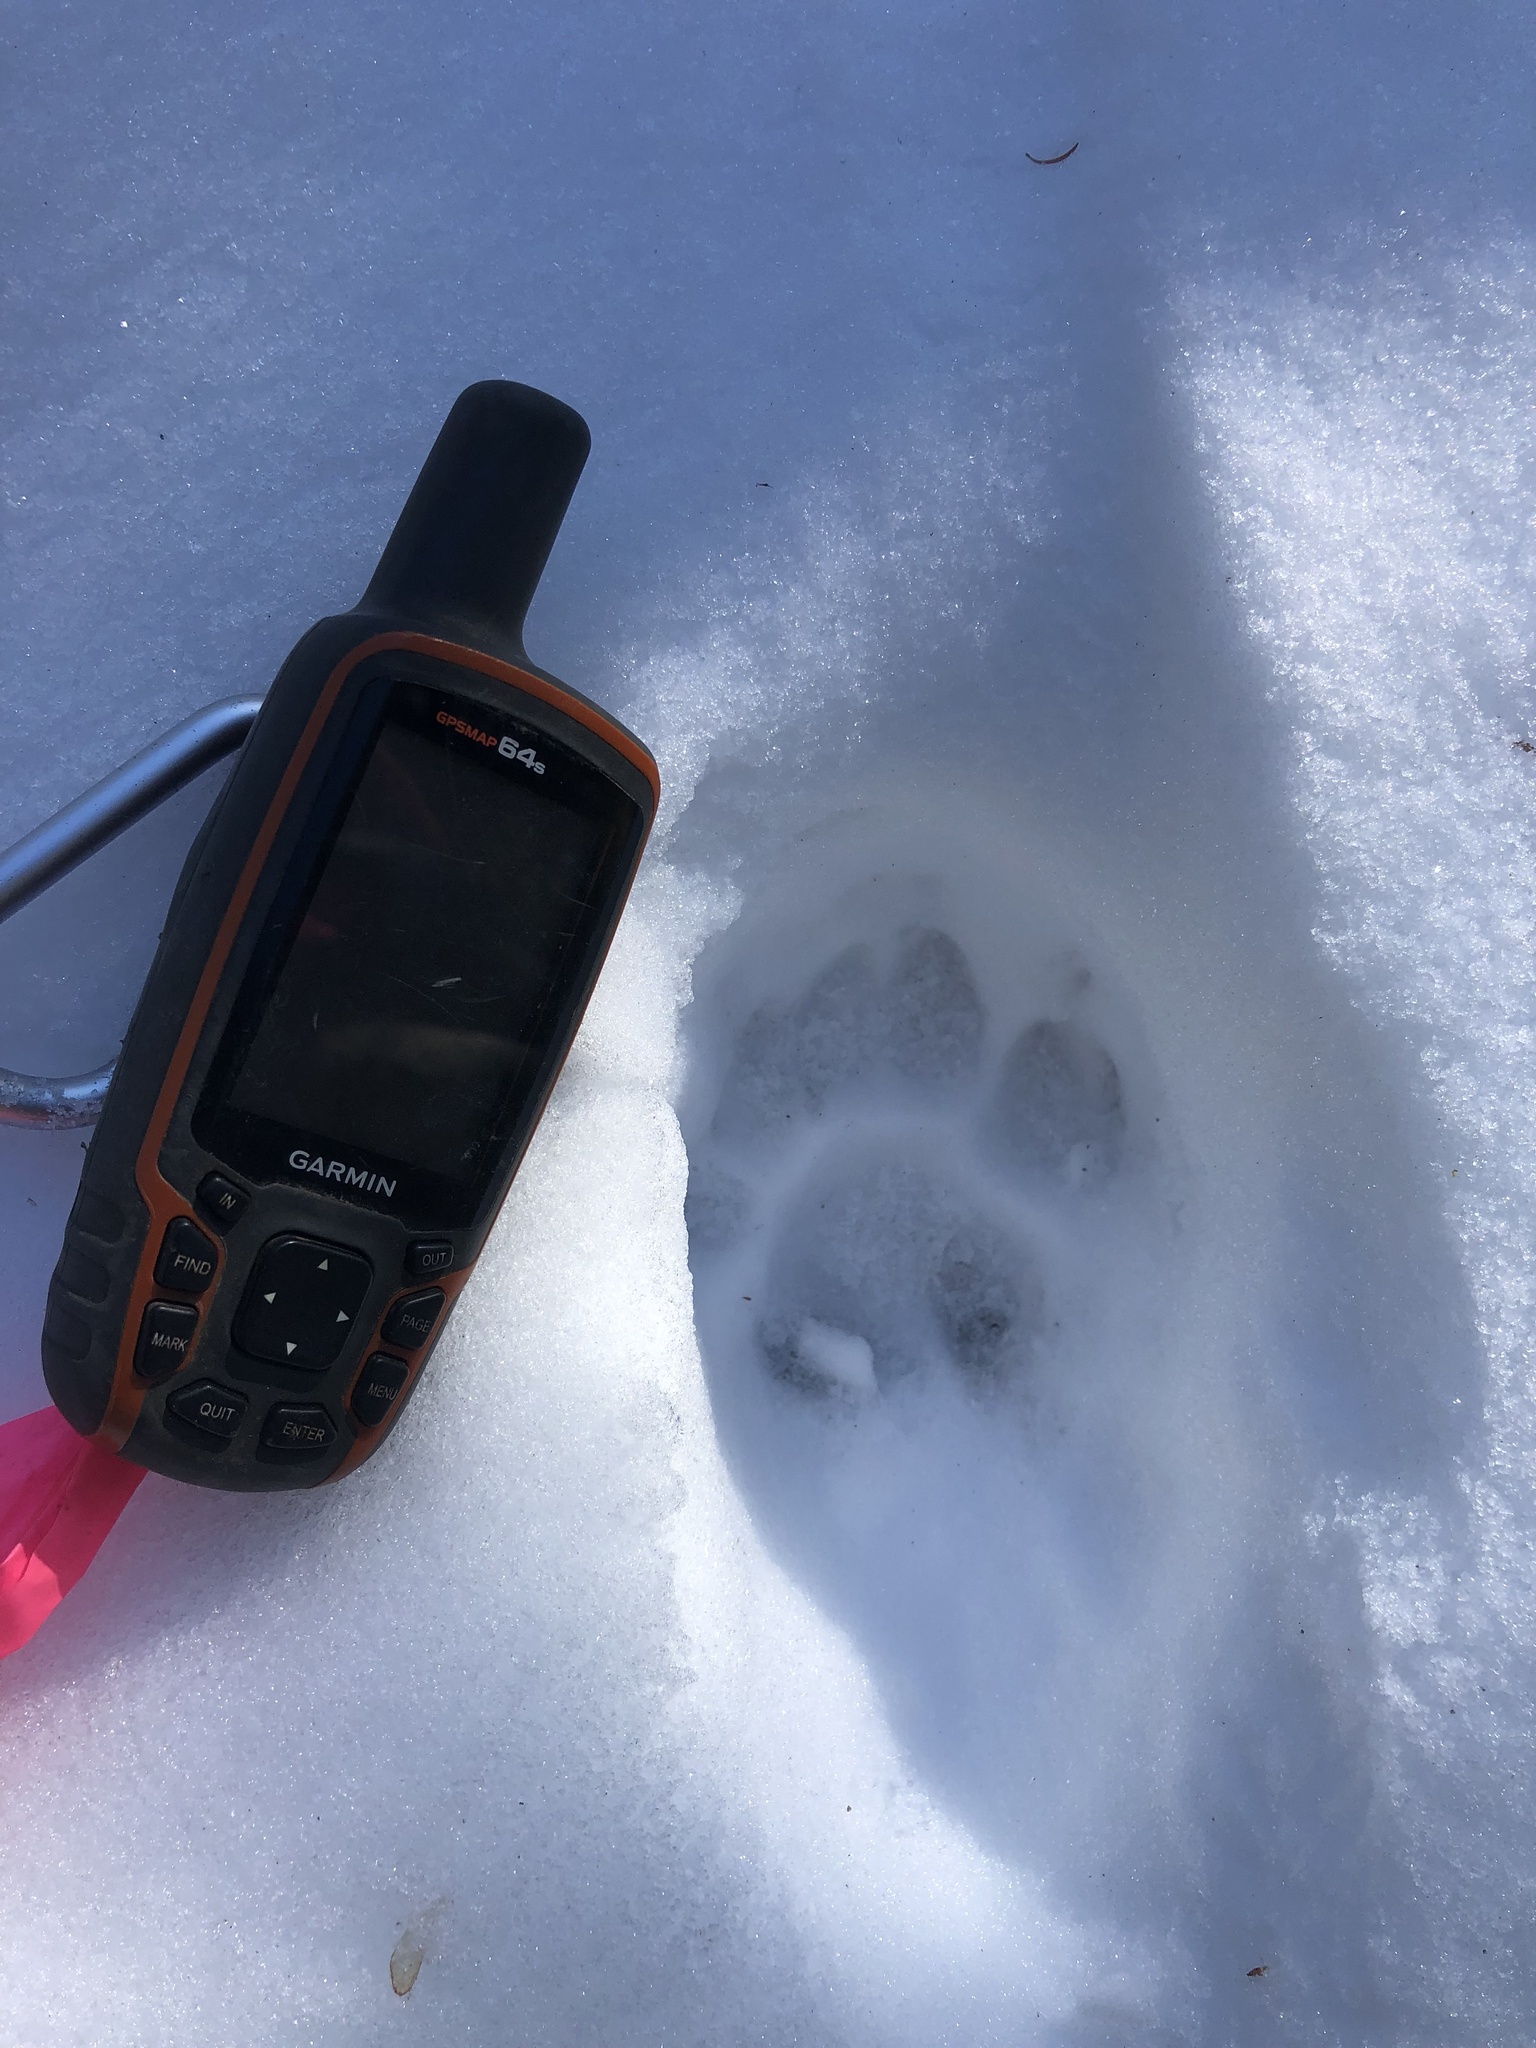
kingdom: Animalia
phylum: Chordata
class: Mammalia
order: Carnivora
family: Felidae
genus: Puma
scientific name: Puma concolor
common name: Puma
